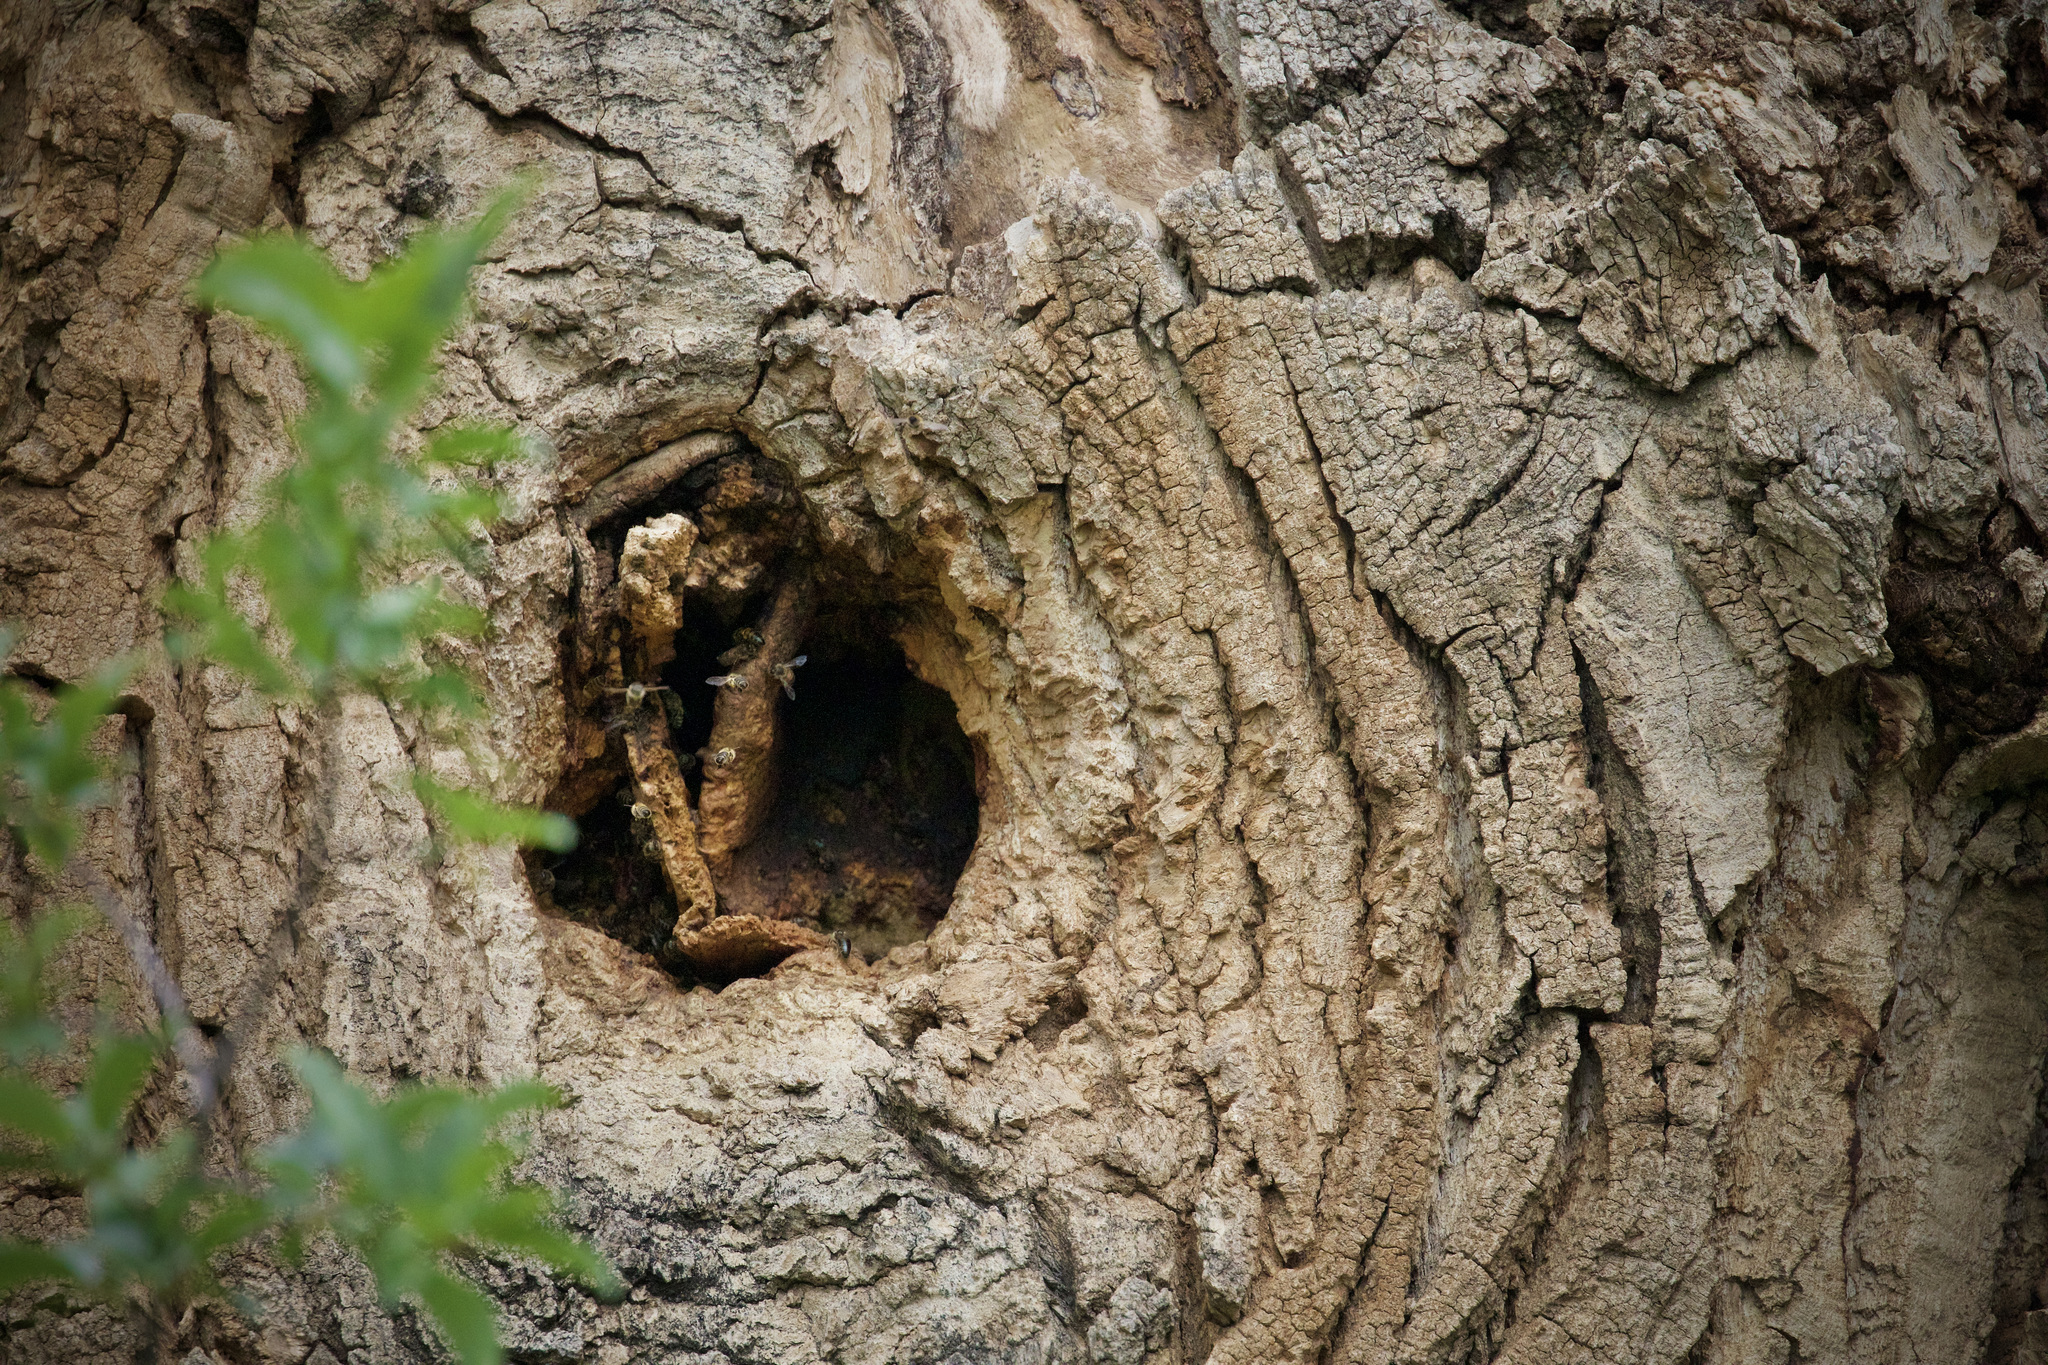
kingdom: Animalia
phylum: Arthropoda
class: Insecta
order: Hymenoptera
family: Apidae
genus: Apis
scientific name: Apis mellifera
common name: Honey bee
